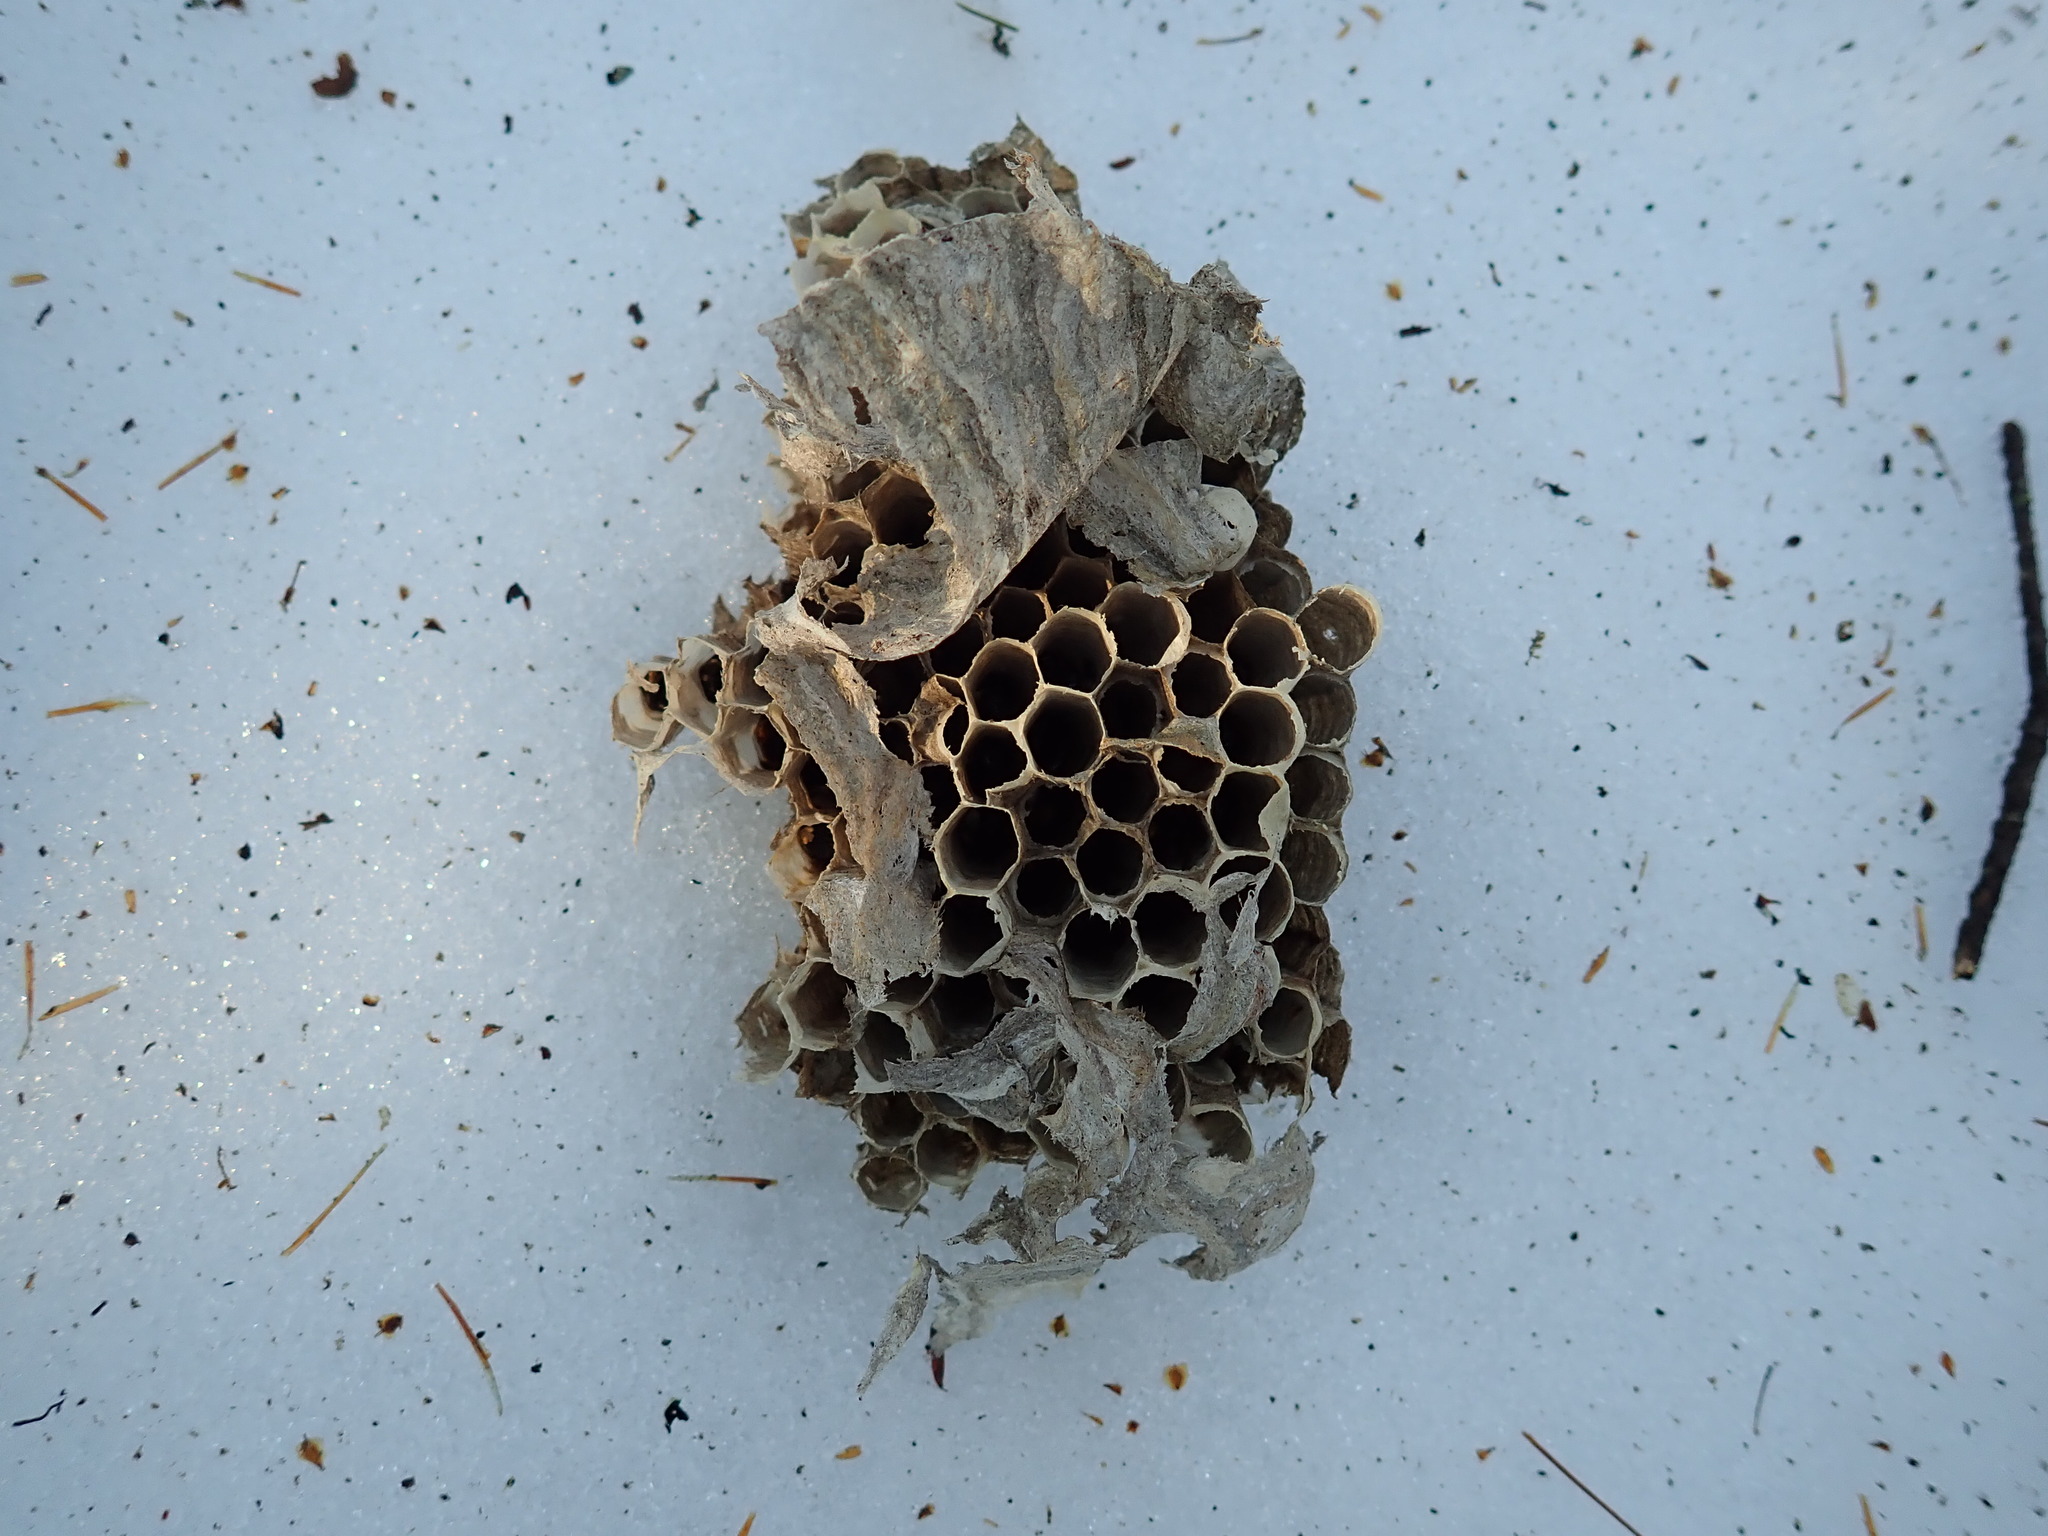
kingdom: Animalia
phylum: Arthropoda
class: Insecta
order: Hymenoptera
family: Vespidae
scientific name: Vespidae
